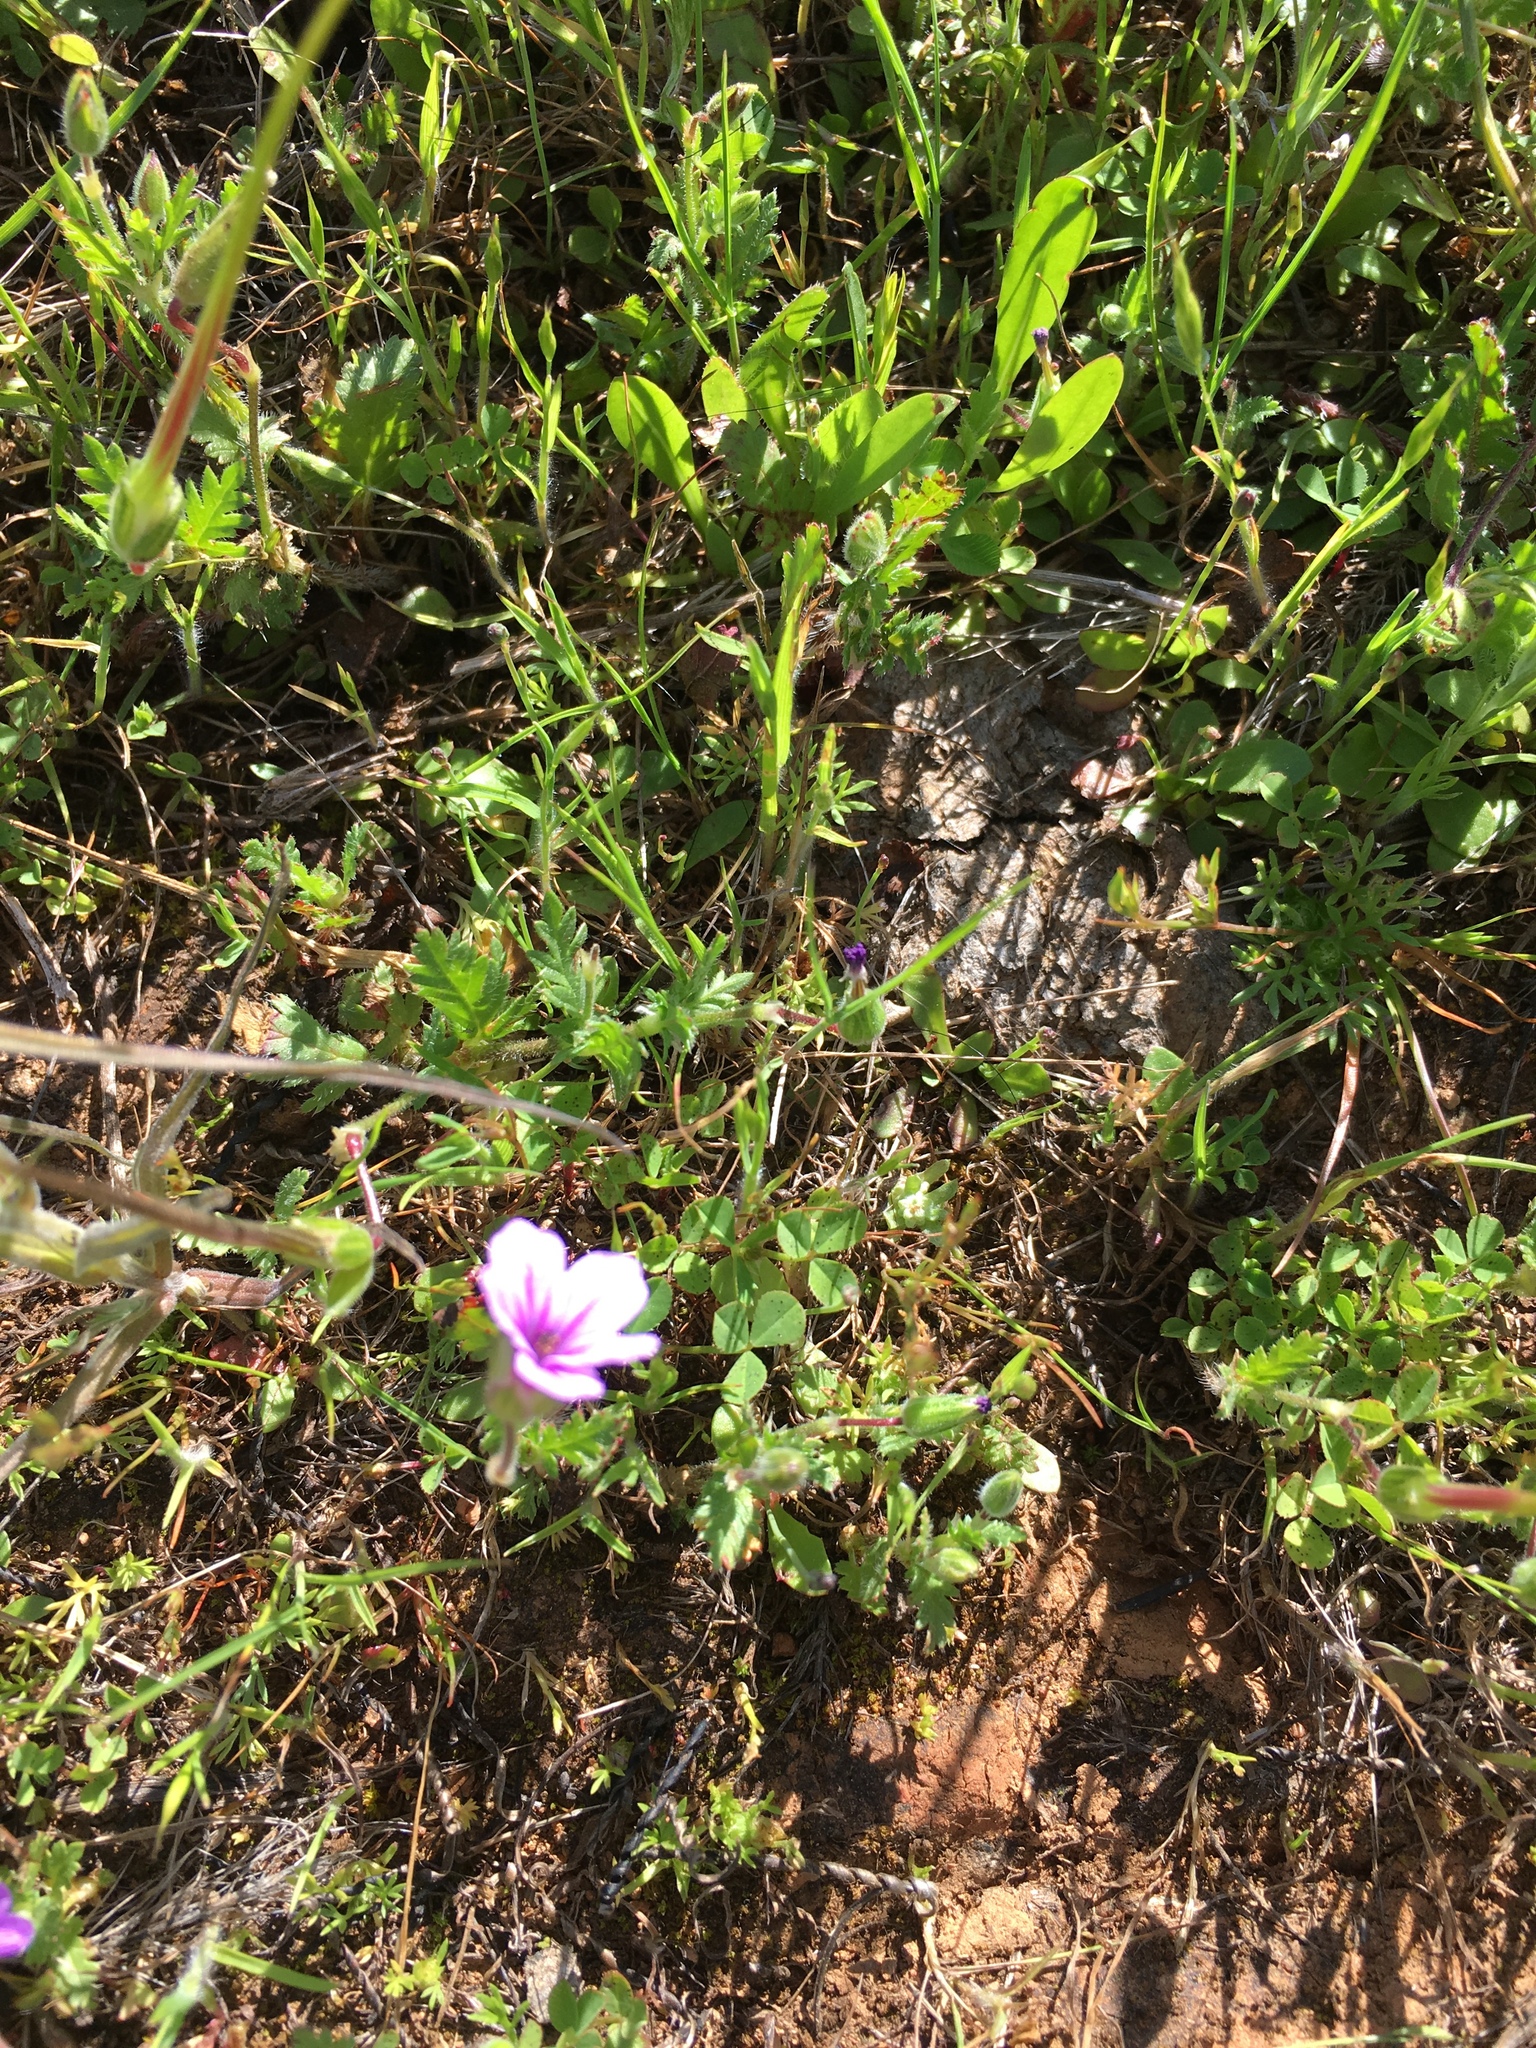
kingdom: Plantae
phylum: Tracheophyta
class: Magnoliopsida
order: Geraniales
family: Geraniaceae
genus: Erodium
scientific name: Erodium botrys
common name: Mediterranean stork's-bill
